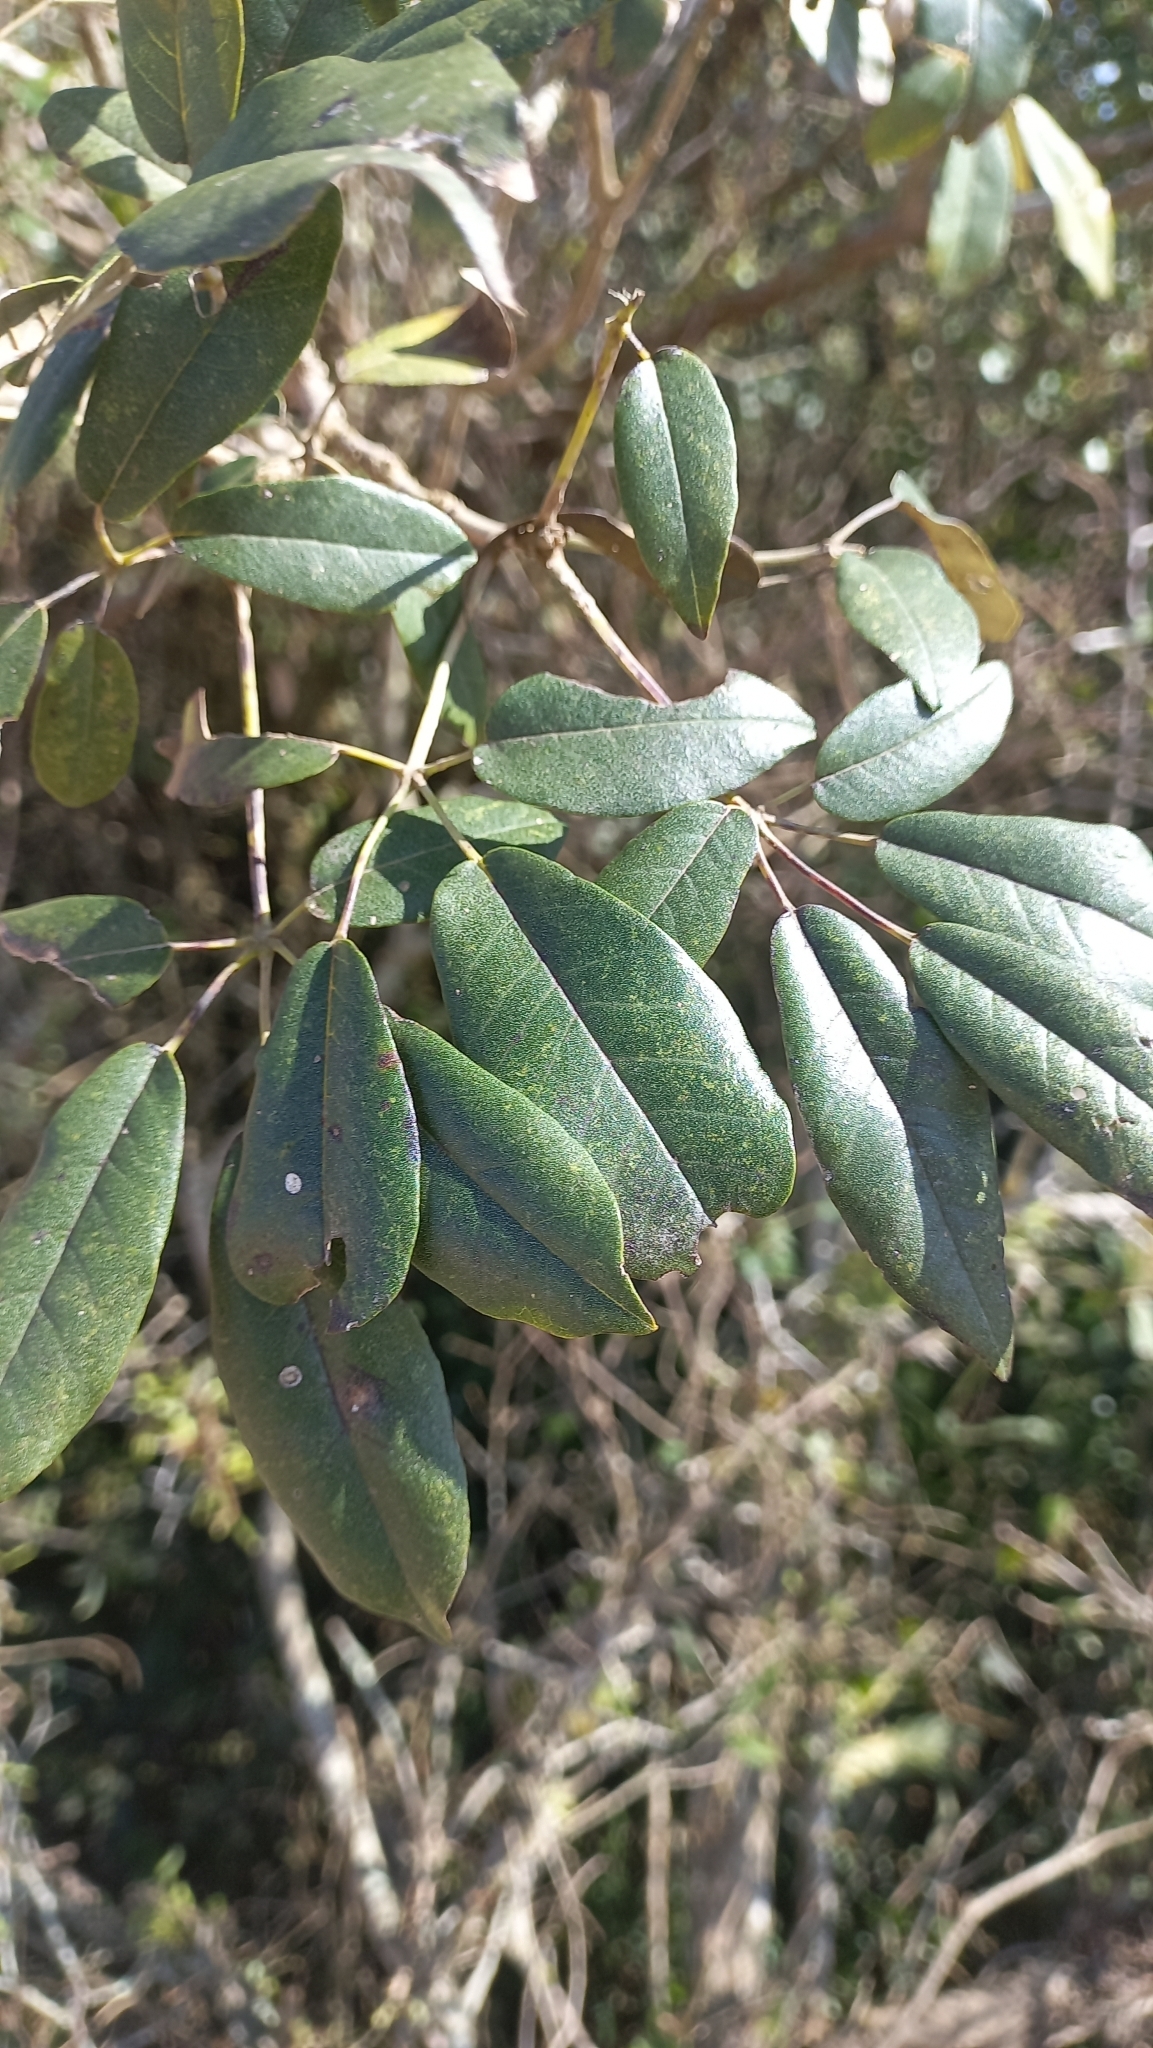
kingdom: Plantae
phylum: Tracheophyta
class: Magnoliopsida
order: Lamiales
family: Bignoniaceae
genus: Handroanthus
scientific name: Handroanthus pulcherrimus
